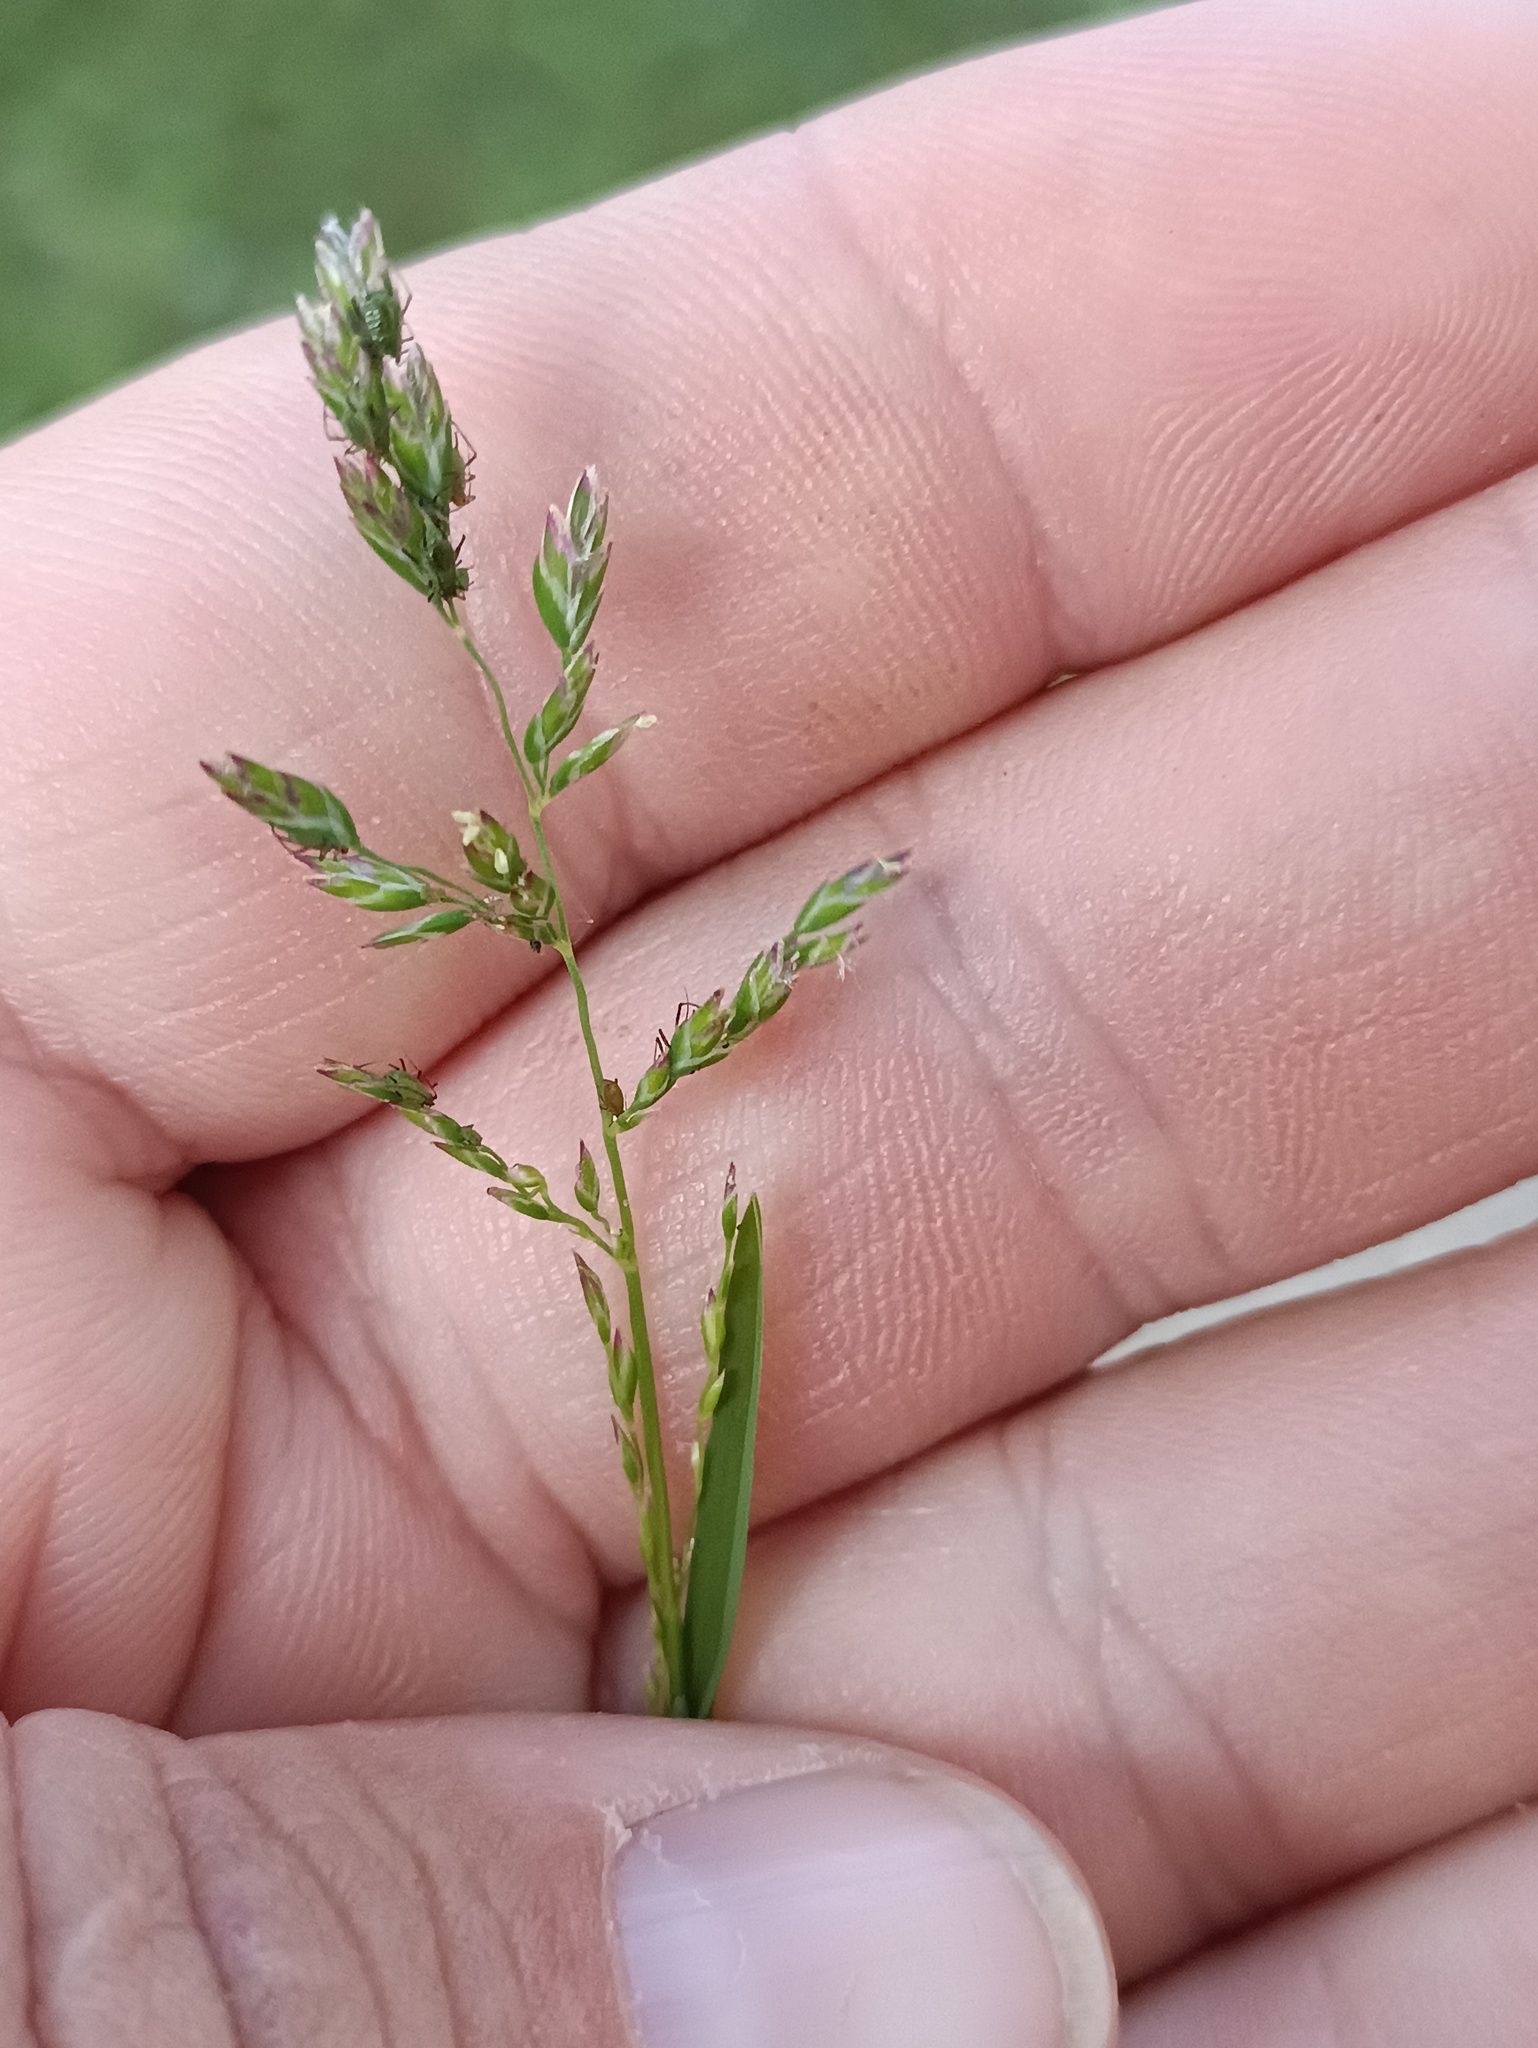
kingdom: Plantae
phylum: Tracheophyta
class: Liliopsida
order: Poales
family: Poaceae
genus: Poa
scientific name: Poa annua
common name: Annual bluegrass
